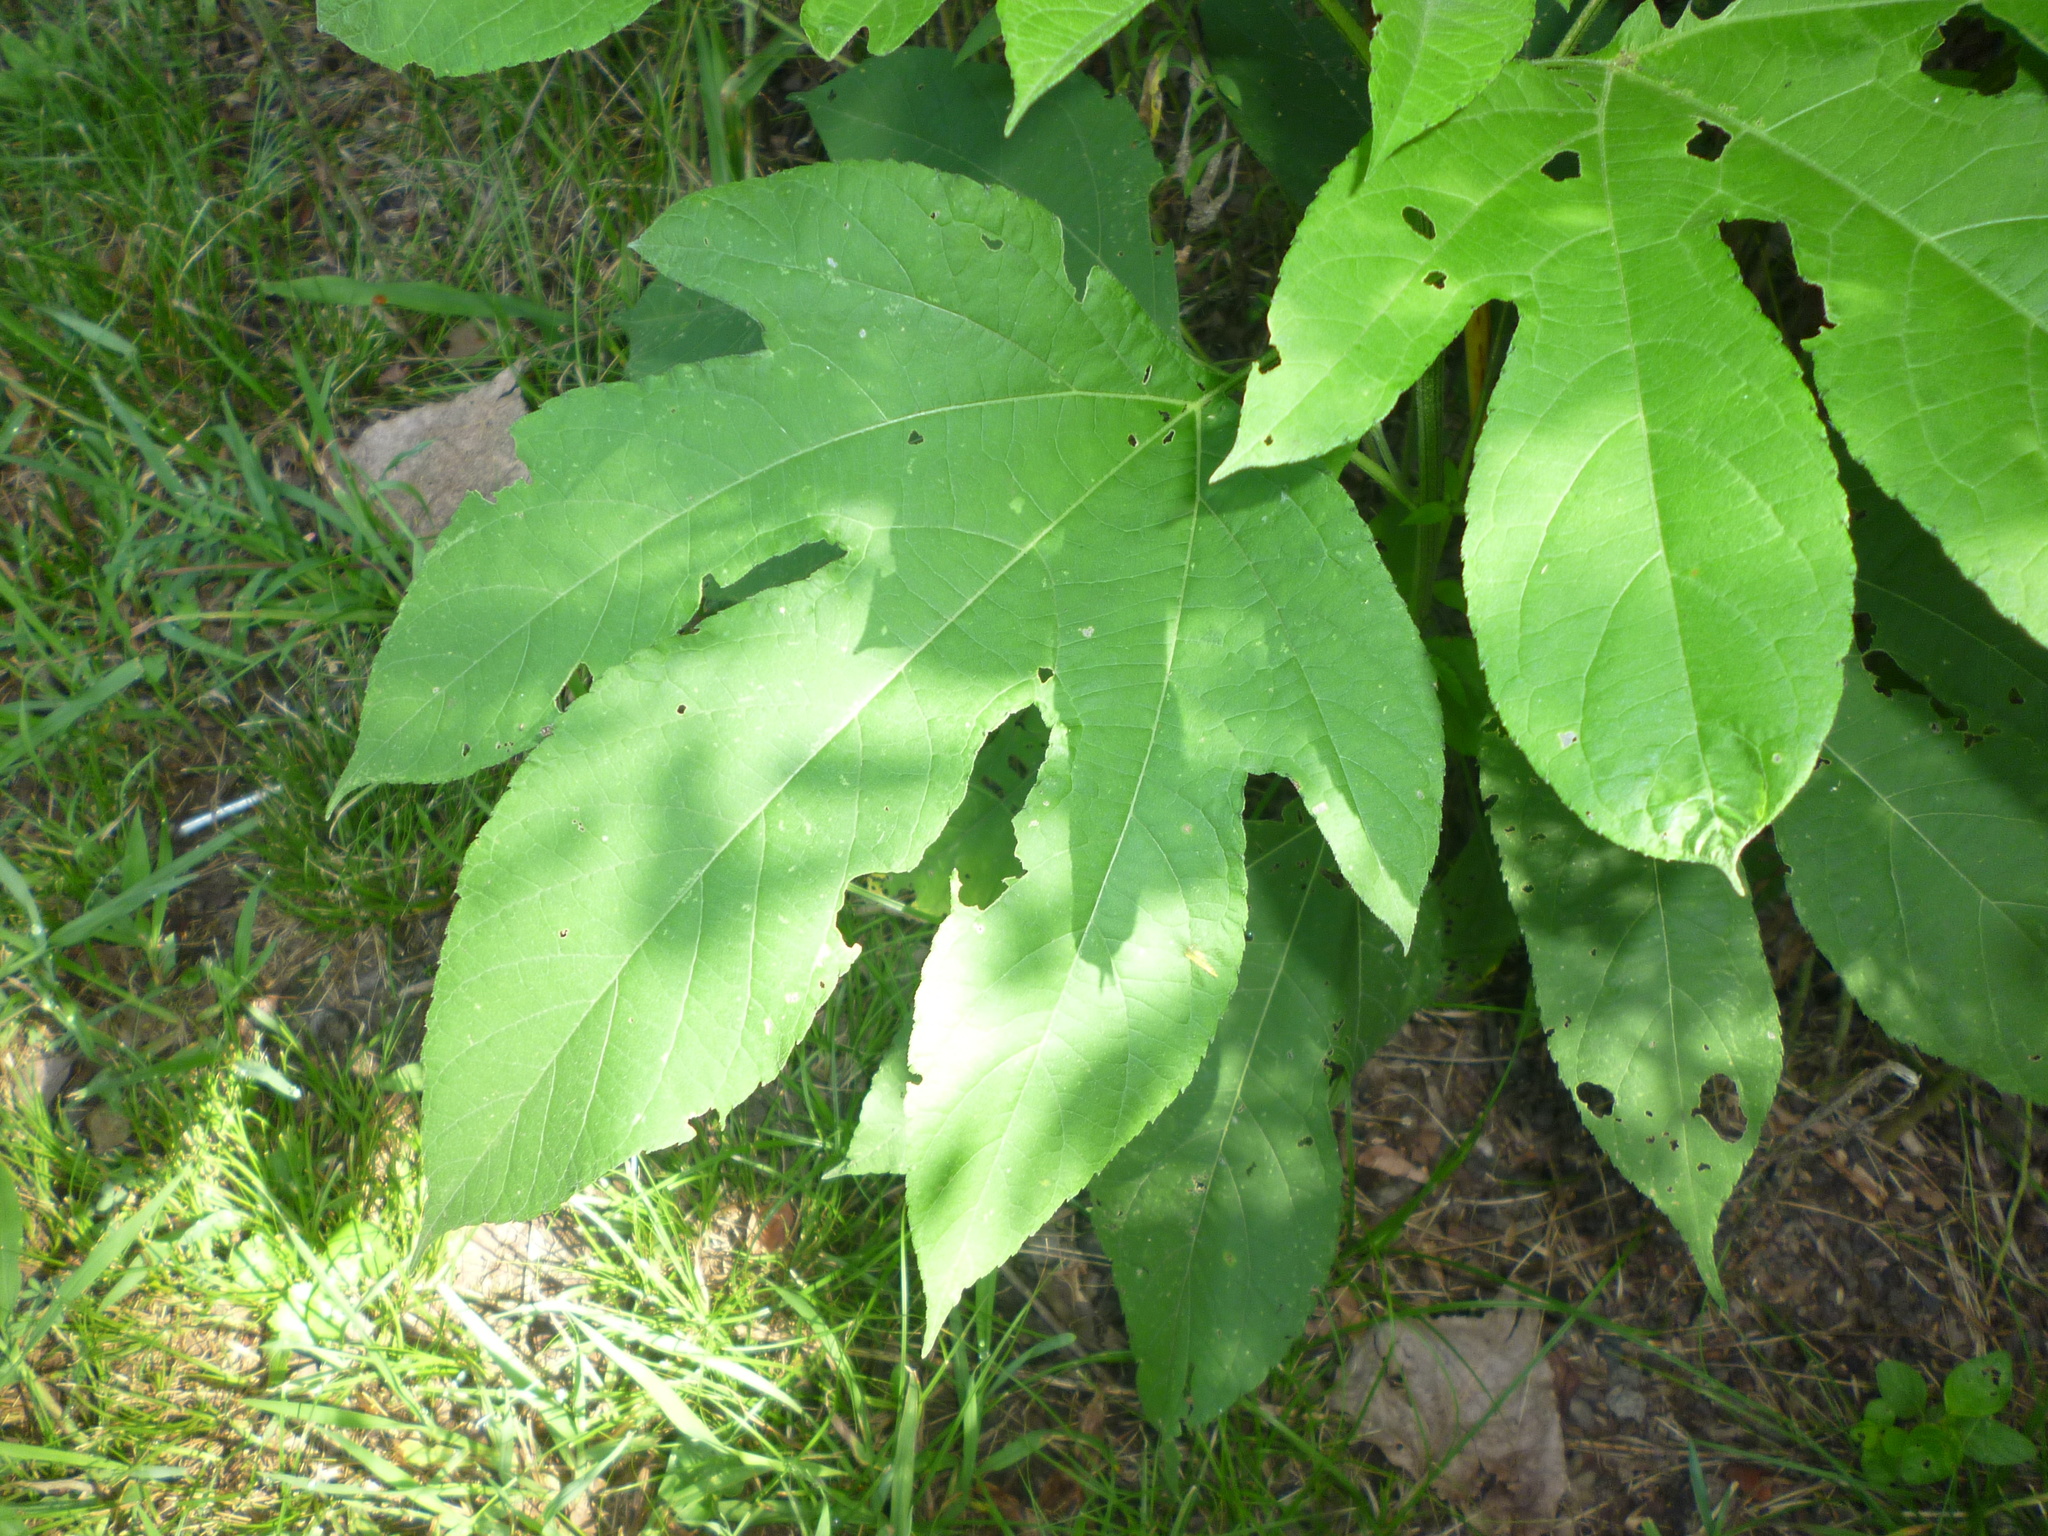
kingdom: Plantae
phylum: Tracheophyta
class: Magnoliopsida
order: Asterales
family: Asteraceae
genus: Ambrosia
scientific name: Ambrosia trifida
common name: Giant ragweed
